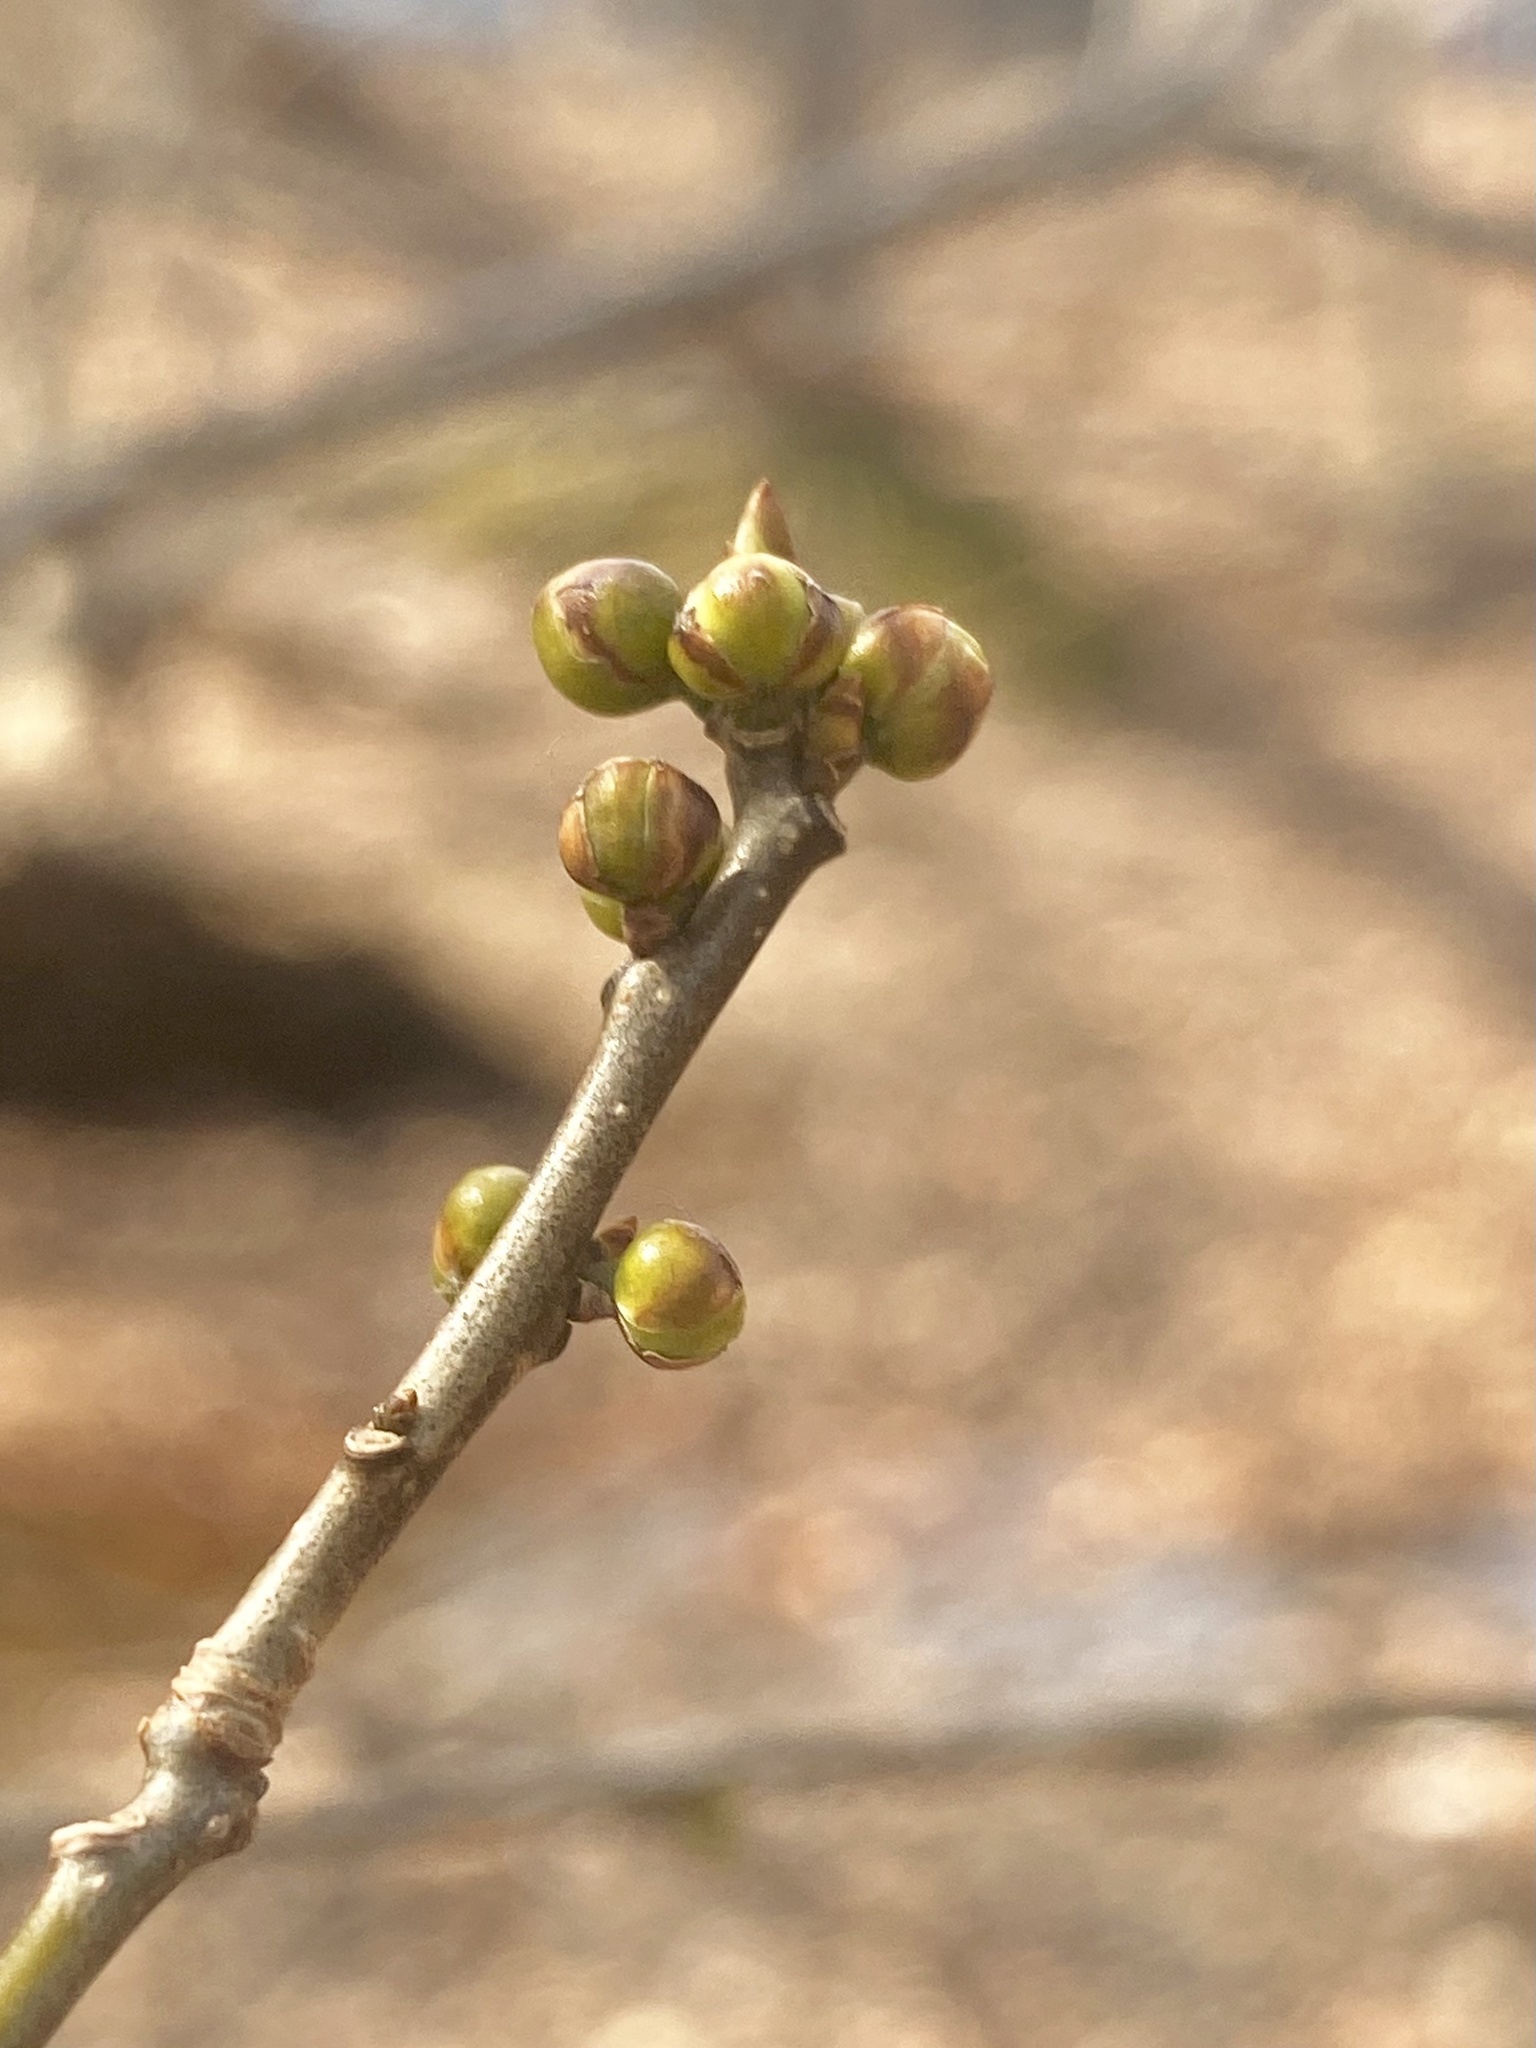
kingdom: Plantae
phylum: Tracheophyta
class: Magnoliopsida
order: Laurales
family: Lauraceae
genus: Lindera
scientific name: Lindera benzoin
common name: Spicebush
